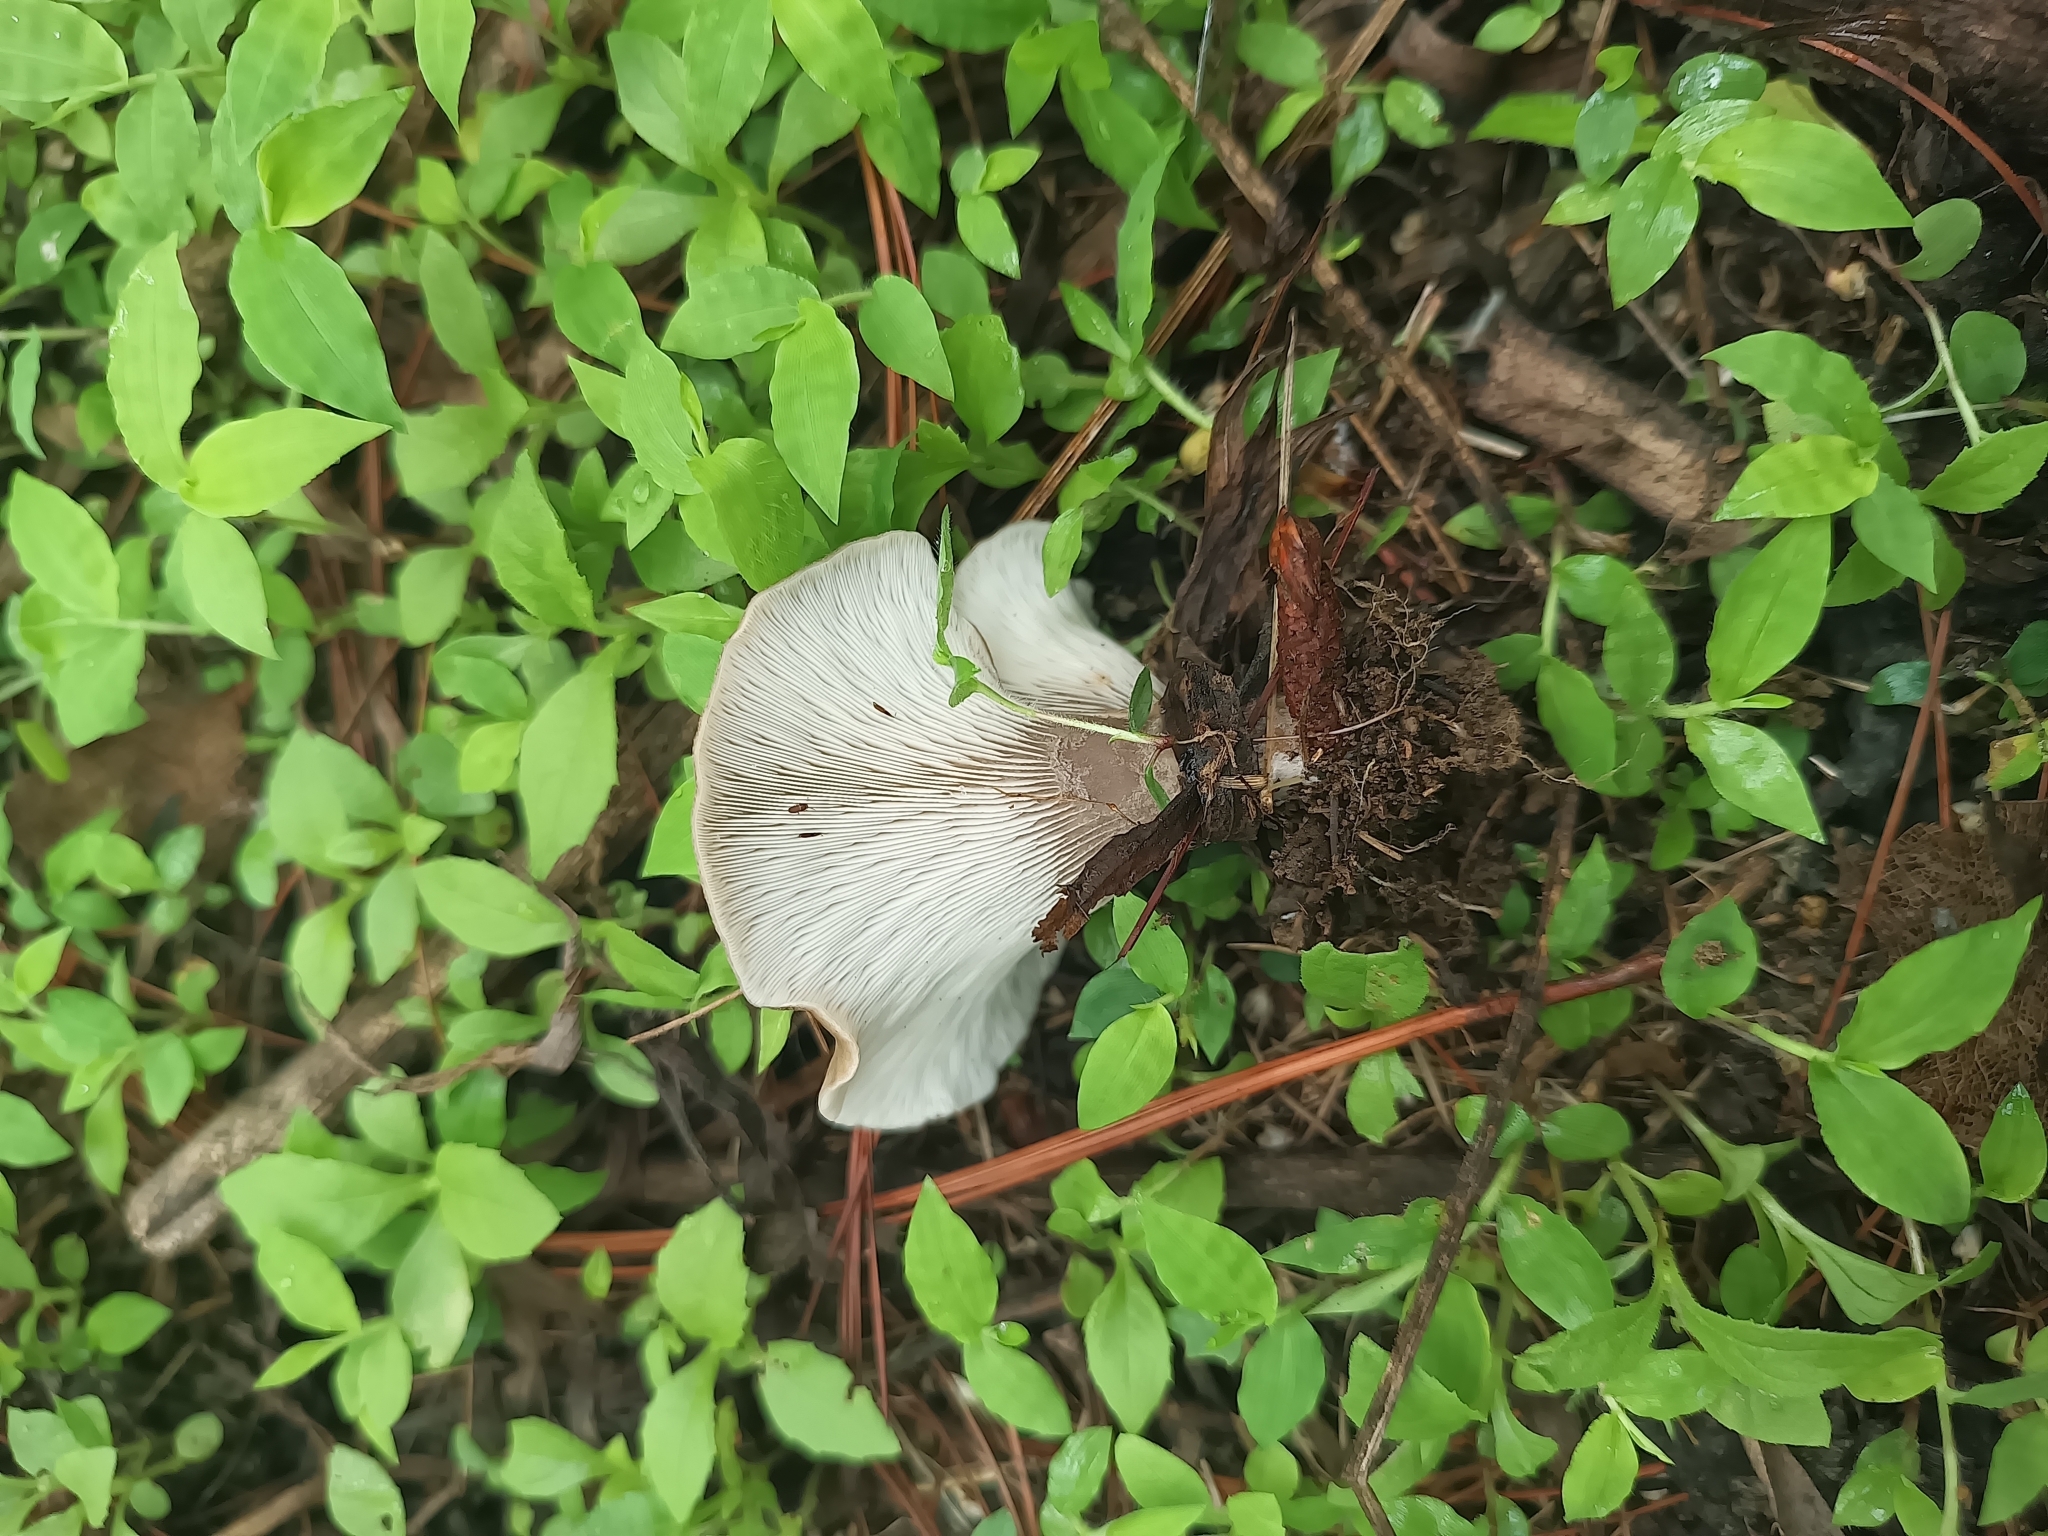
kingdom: Fungi
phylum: Basidiomycota
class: Agaricomycetes
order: Agaricales
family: Pleurotaceae
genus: Hohenbuehelia
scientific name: Hohenbuehelia petaloides
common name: Shoehorn oyster
